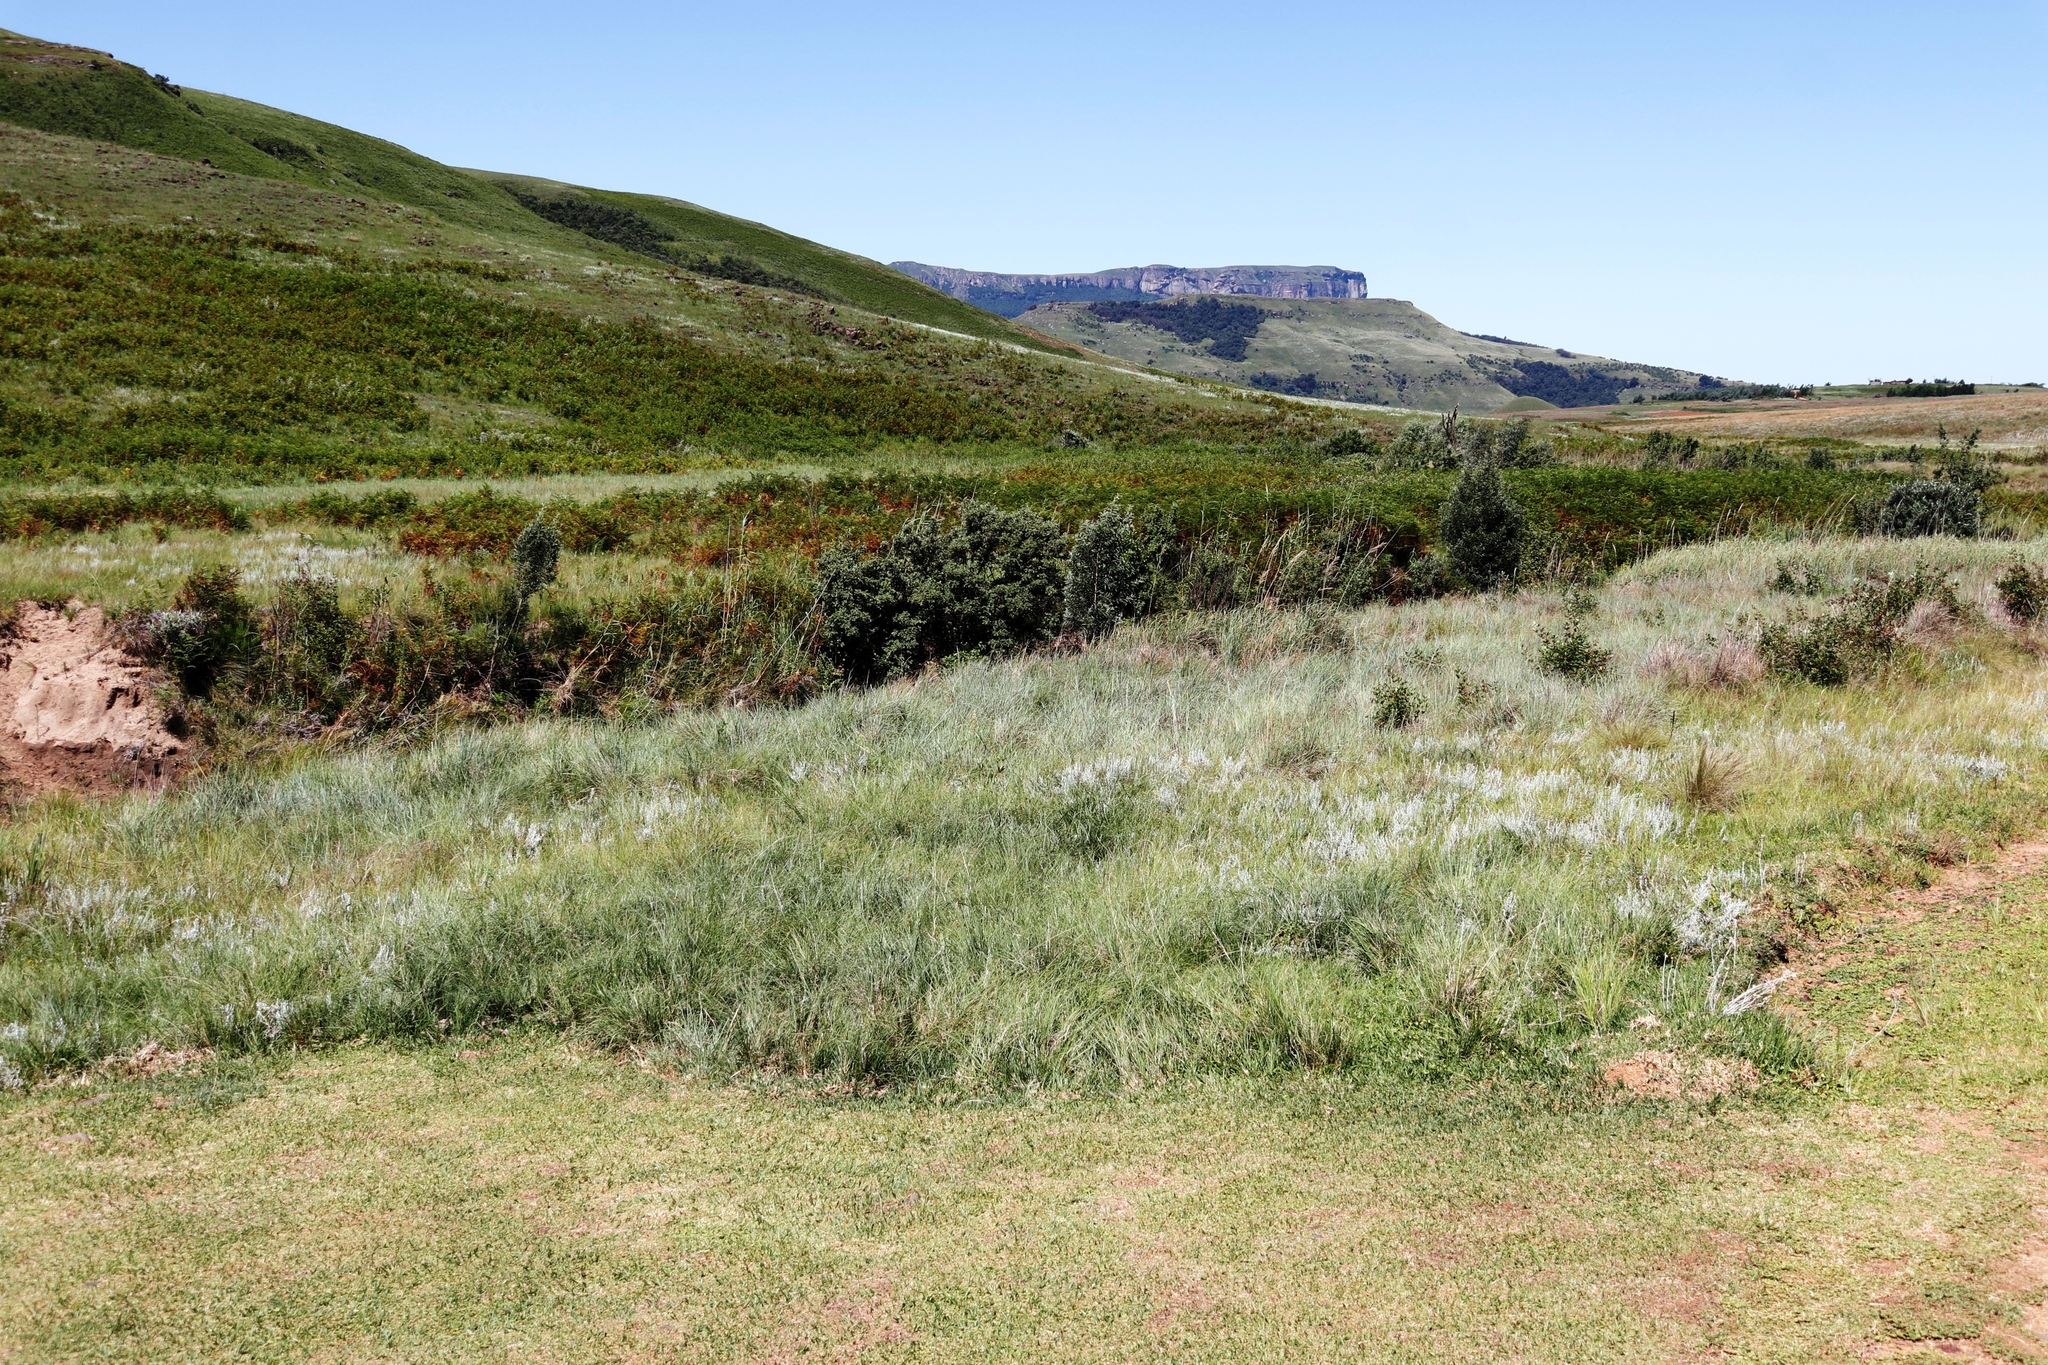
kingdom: Plantae
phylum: Tracheophyta
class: Magnoliopsida
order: Fabales
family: Fabaceae
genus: Acacia
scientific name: Acacia melanoxylon
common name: Blackwood
